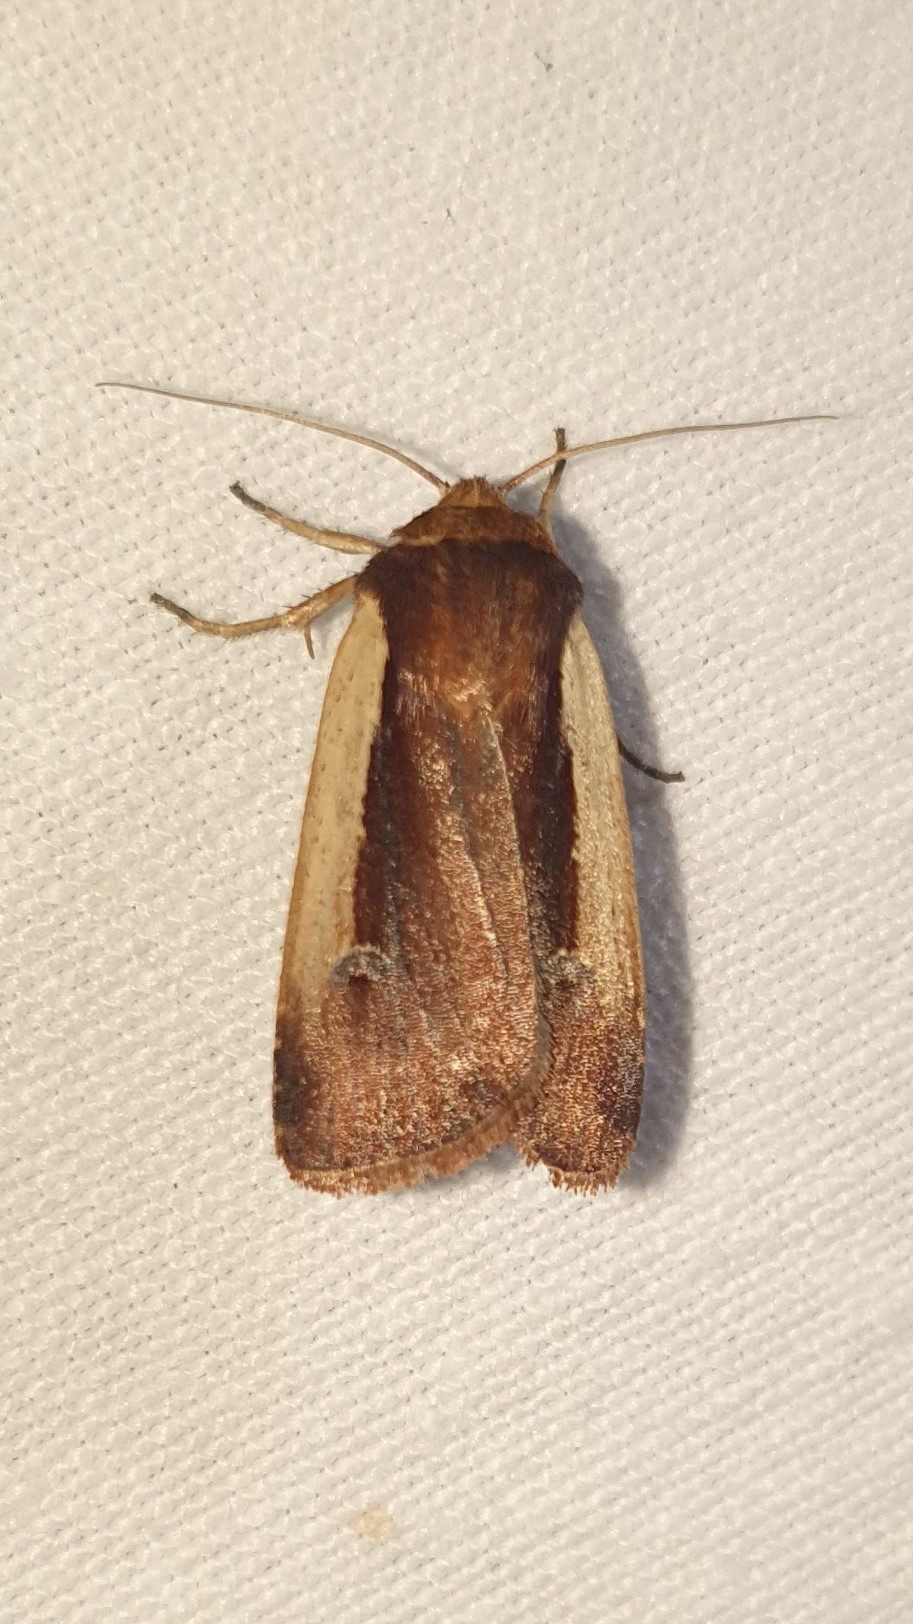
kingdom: Animalia
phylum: Arthropoda
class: Insecta
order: Lepidoptera
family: Noctuidae
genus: Ochropleura
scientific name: Ochropleura plecta
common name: Flame shoulder
